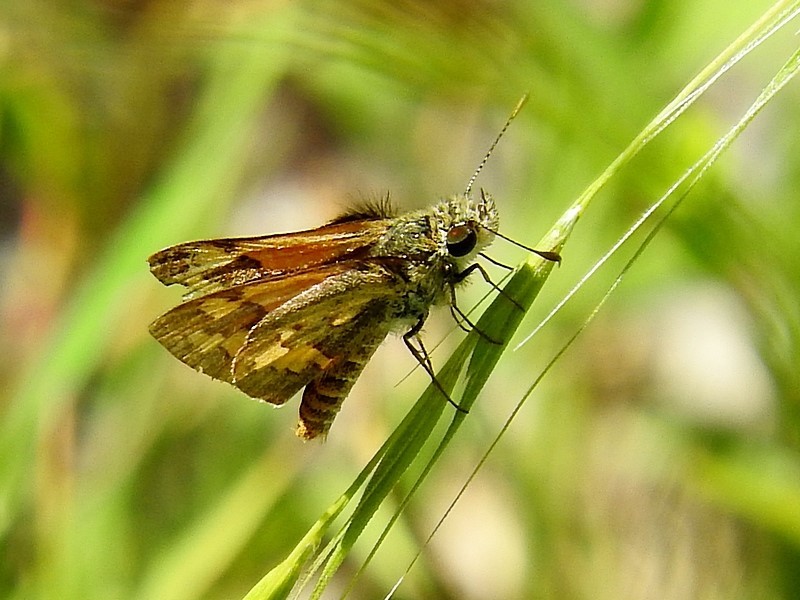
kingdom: Animalia
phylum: Arthropoda
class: Insecta
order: Lepidoptera
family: Hesperiidae
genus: Ocybadistes
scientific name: Ocybadistes walkeri
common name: Yellow-banded dart
